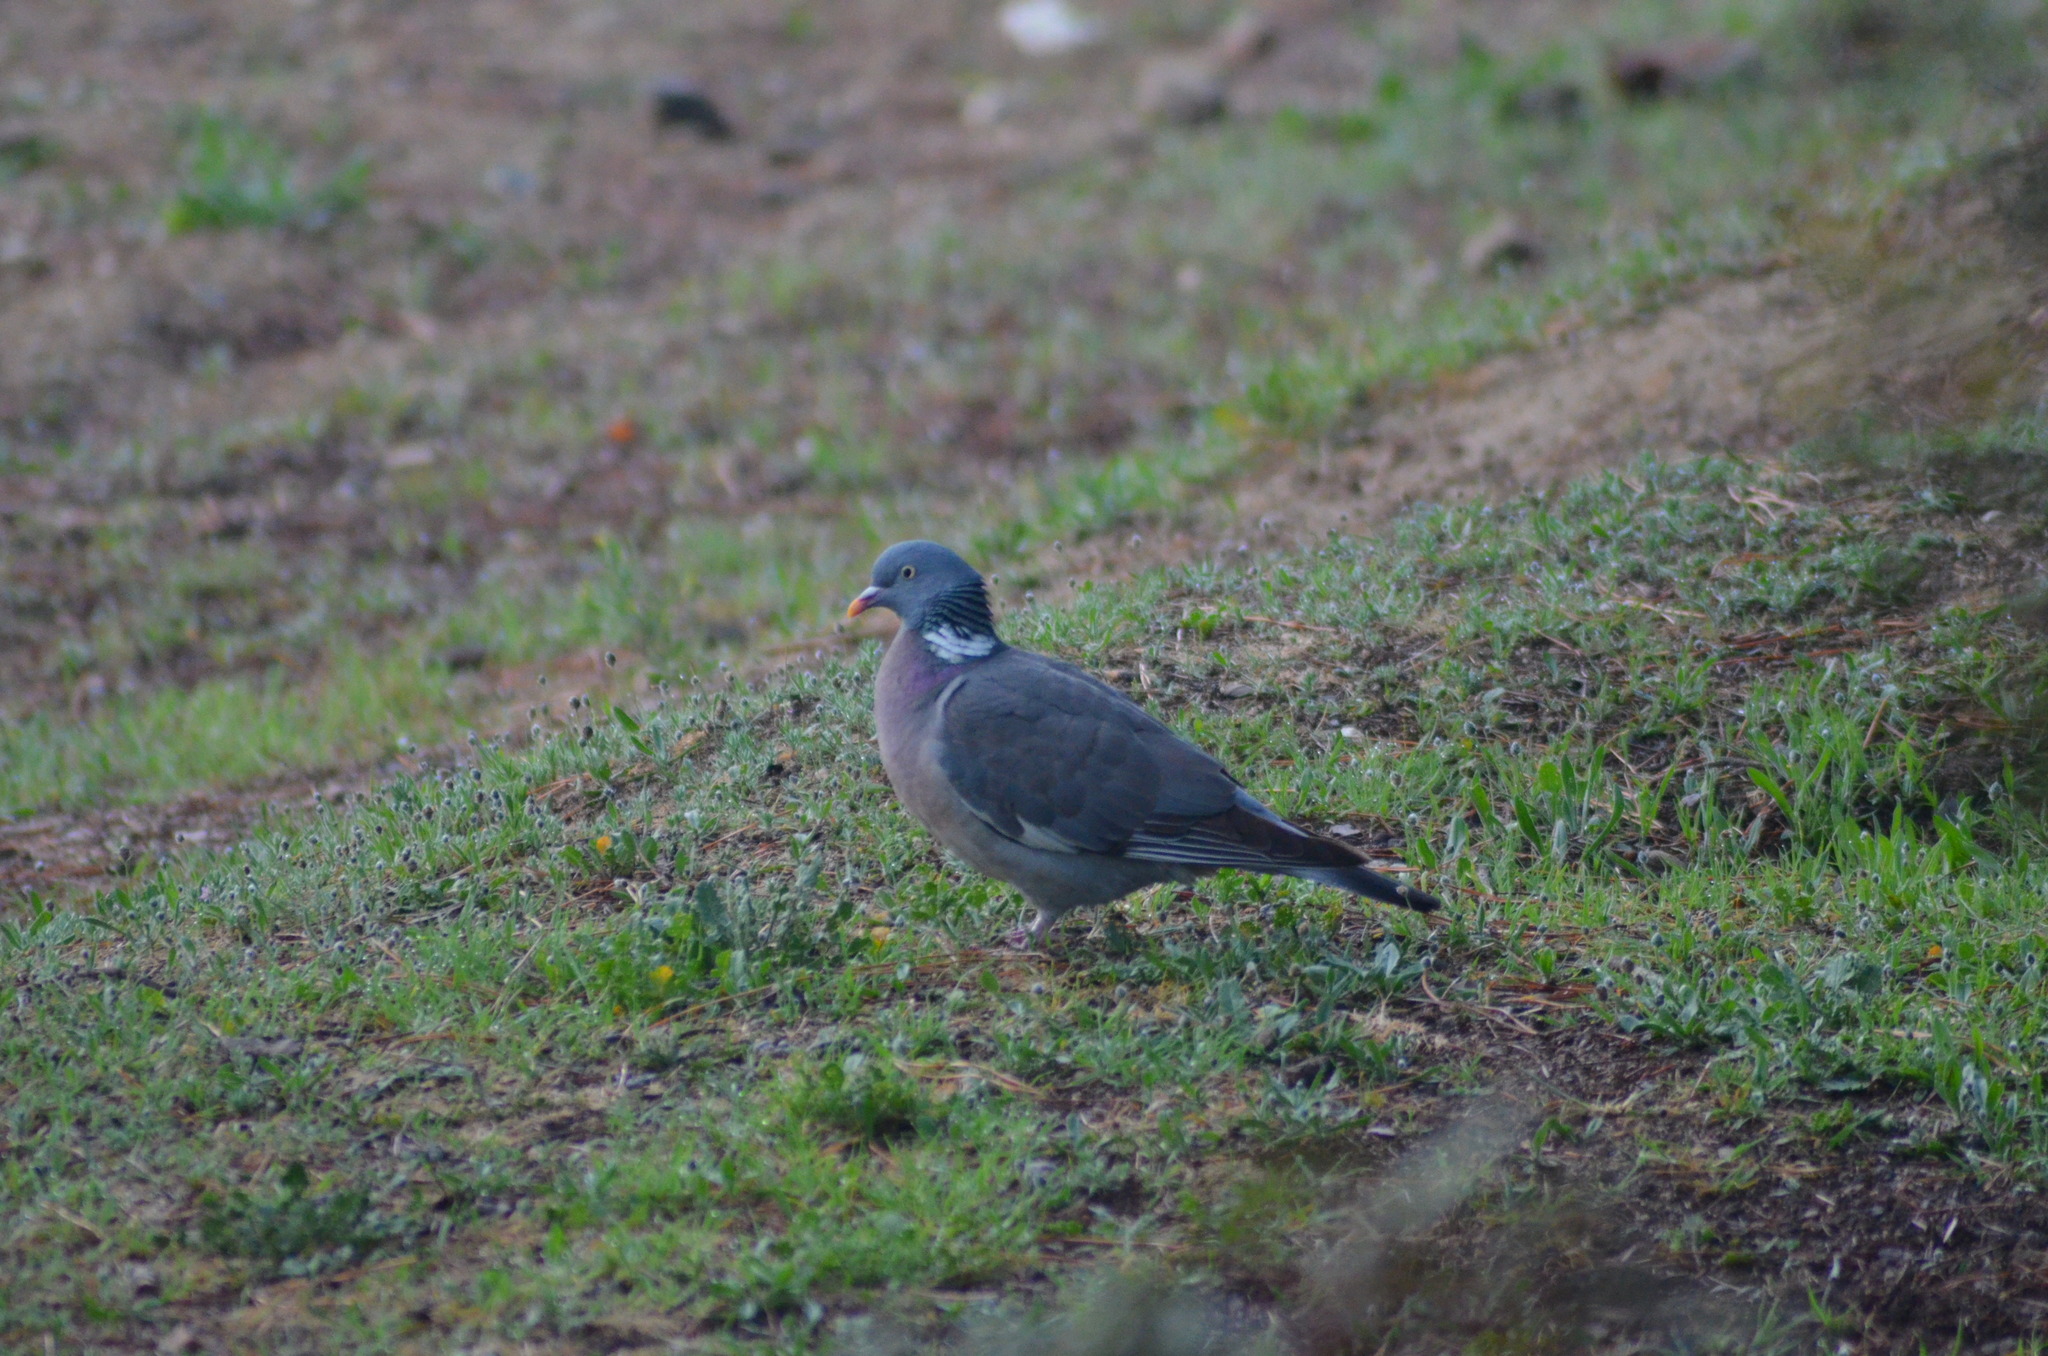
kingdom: Animalia
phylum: Chordata
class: Aves
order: Columbiformes
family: Columbidae
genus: Columba
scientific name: Columba palumbus
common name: Common wood pigeon
